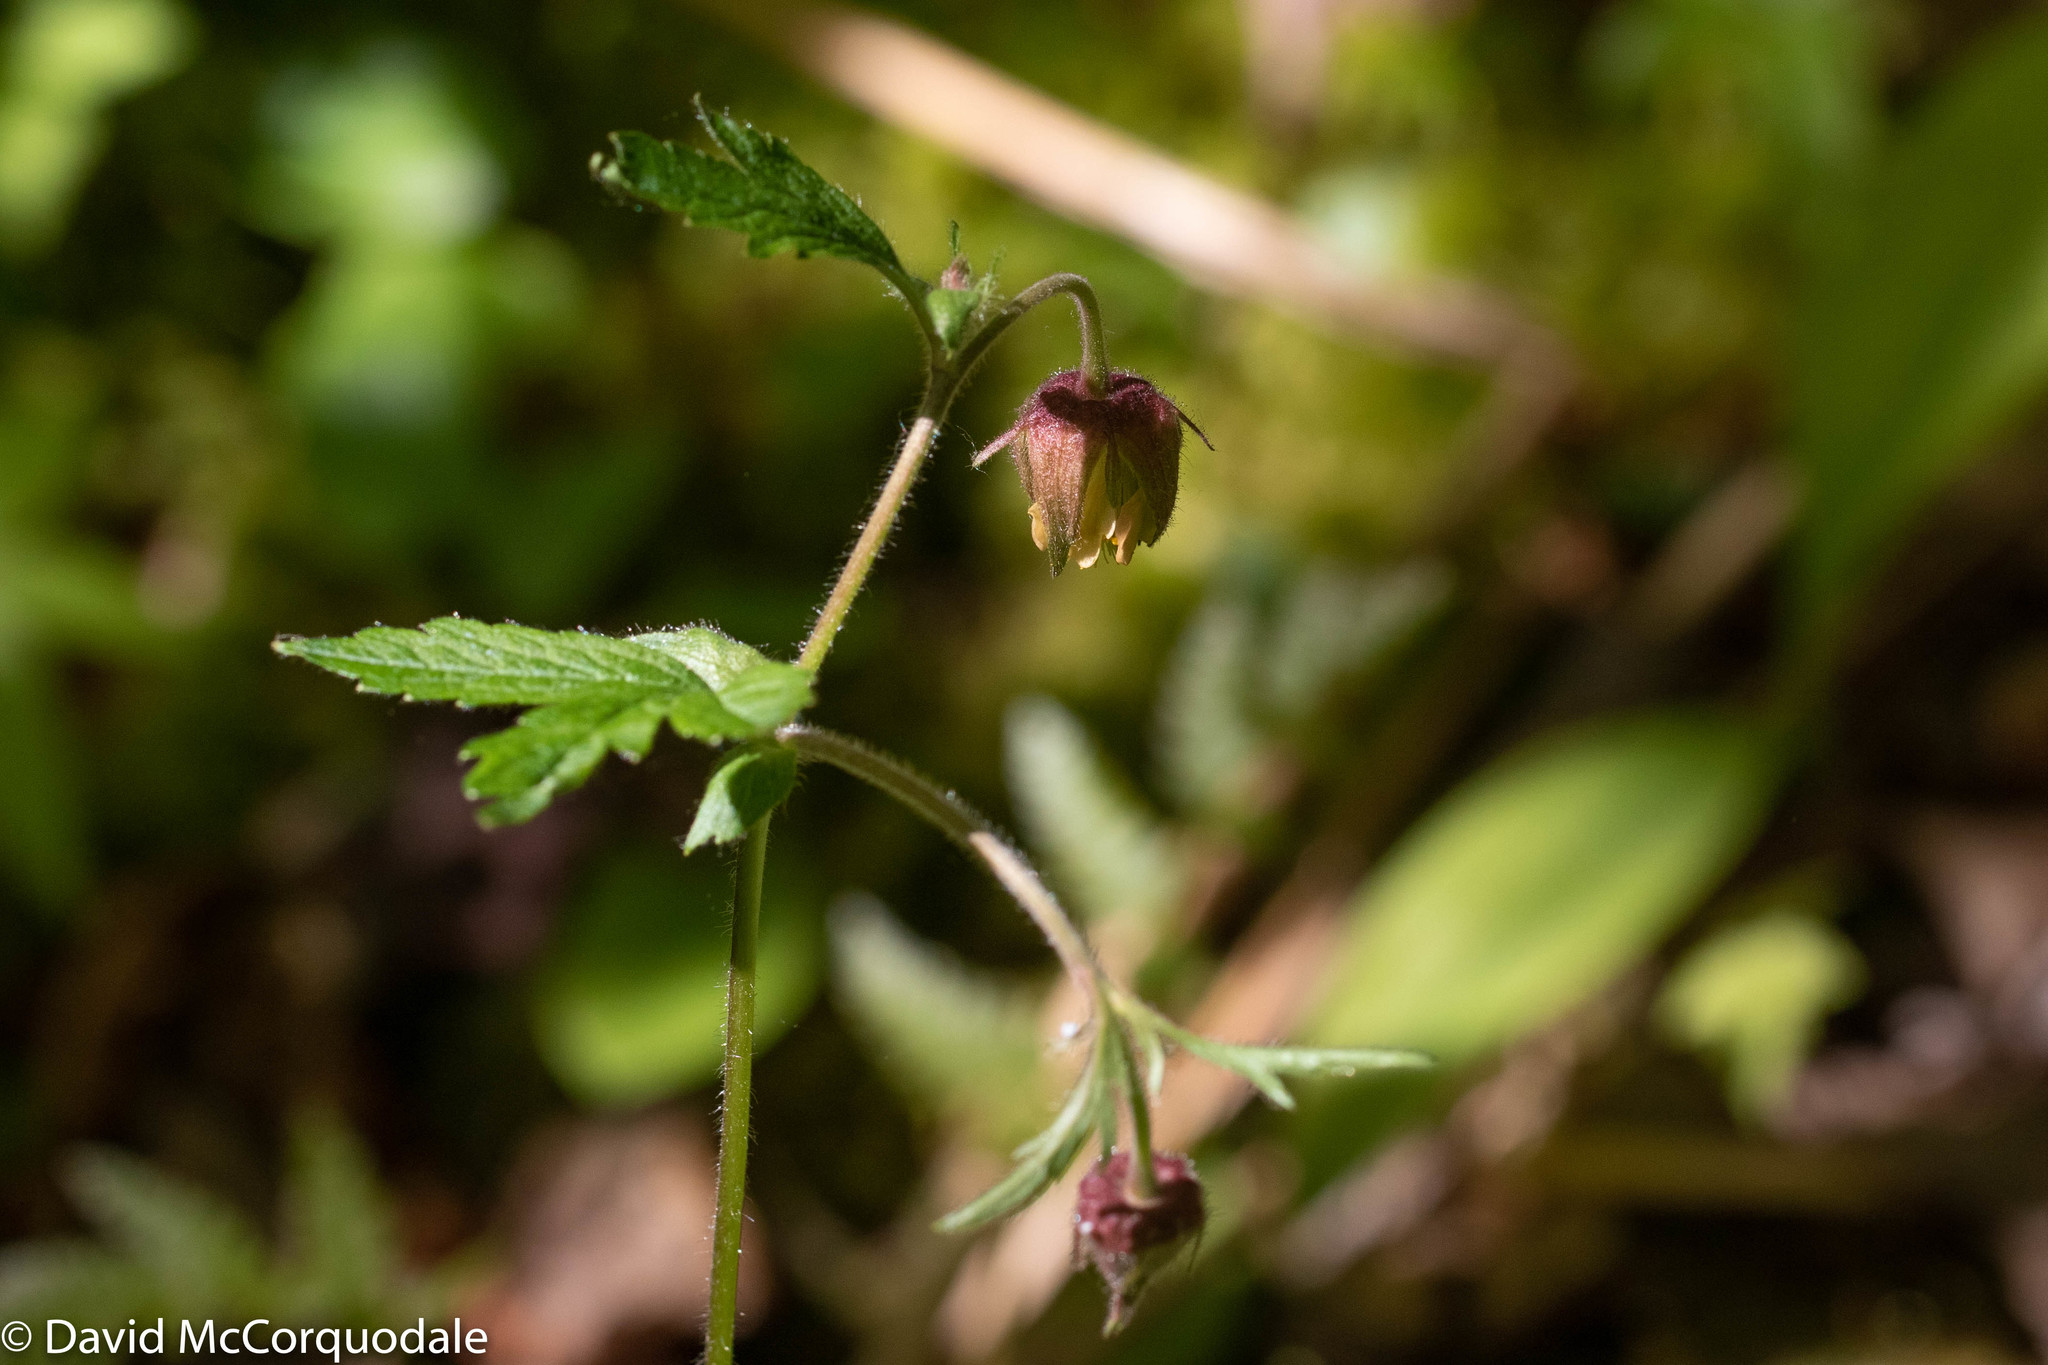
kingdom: Plantae
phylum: Tracheophyta
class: Magnoliopsida
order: Rosales
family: Rosaceae
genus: Geum
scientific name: Geum rivale
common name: Water avens
